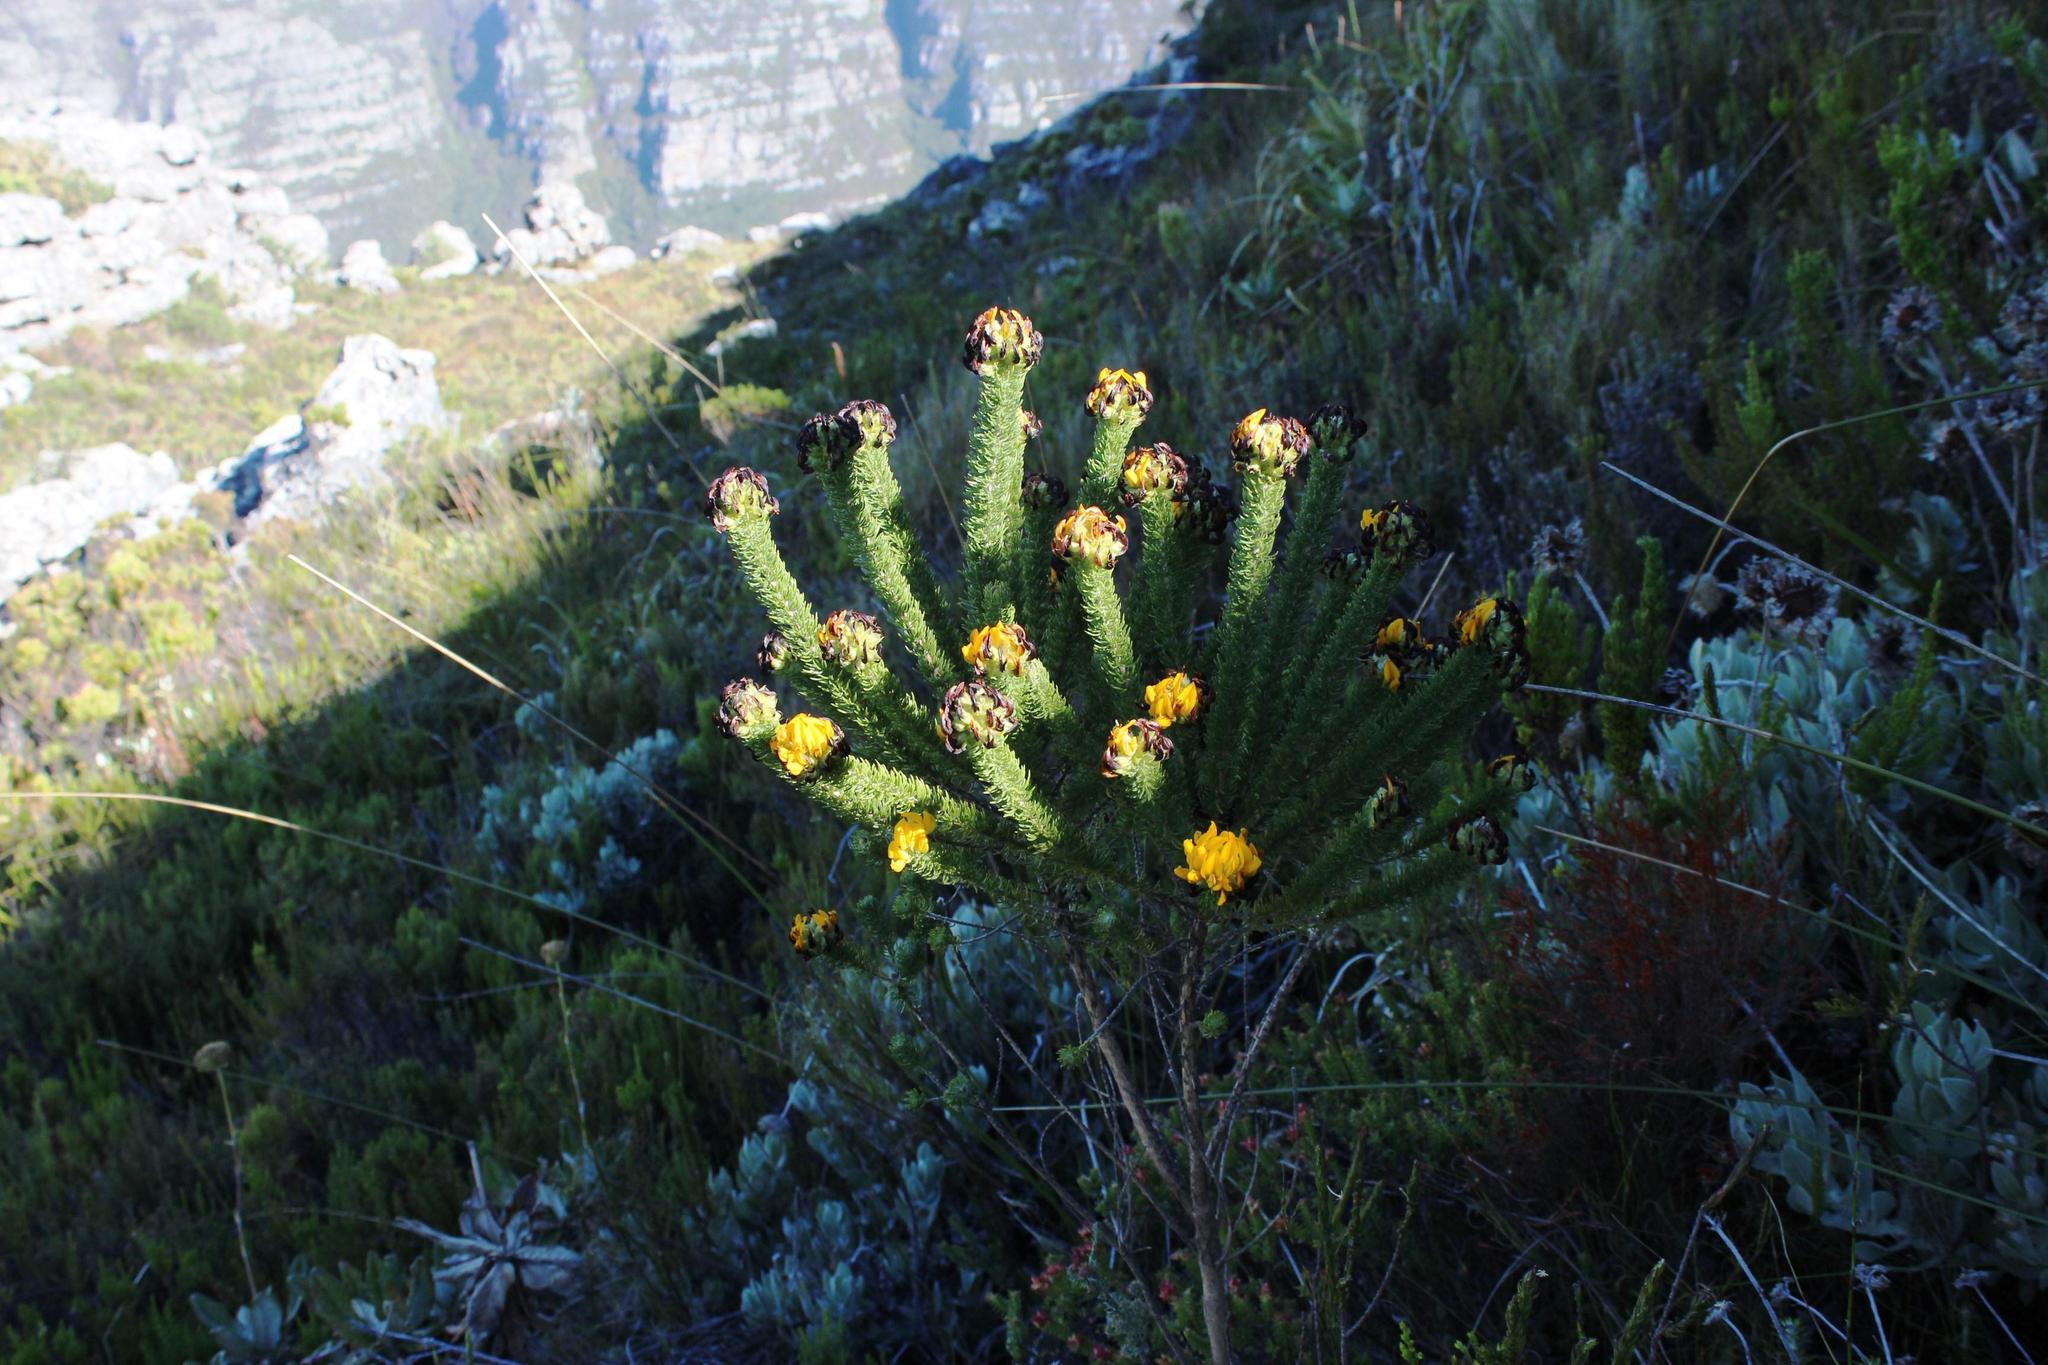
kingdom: Plantae
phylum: Tracheophyta
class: Magnoliopsida
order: Fabales
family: Fabaceae
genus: Aspalathus
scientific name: Aspalathus capitata
